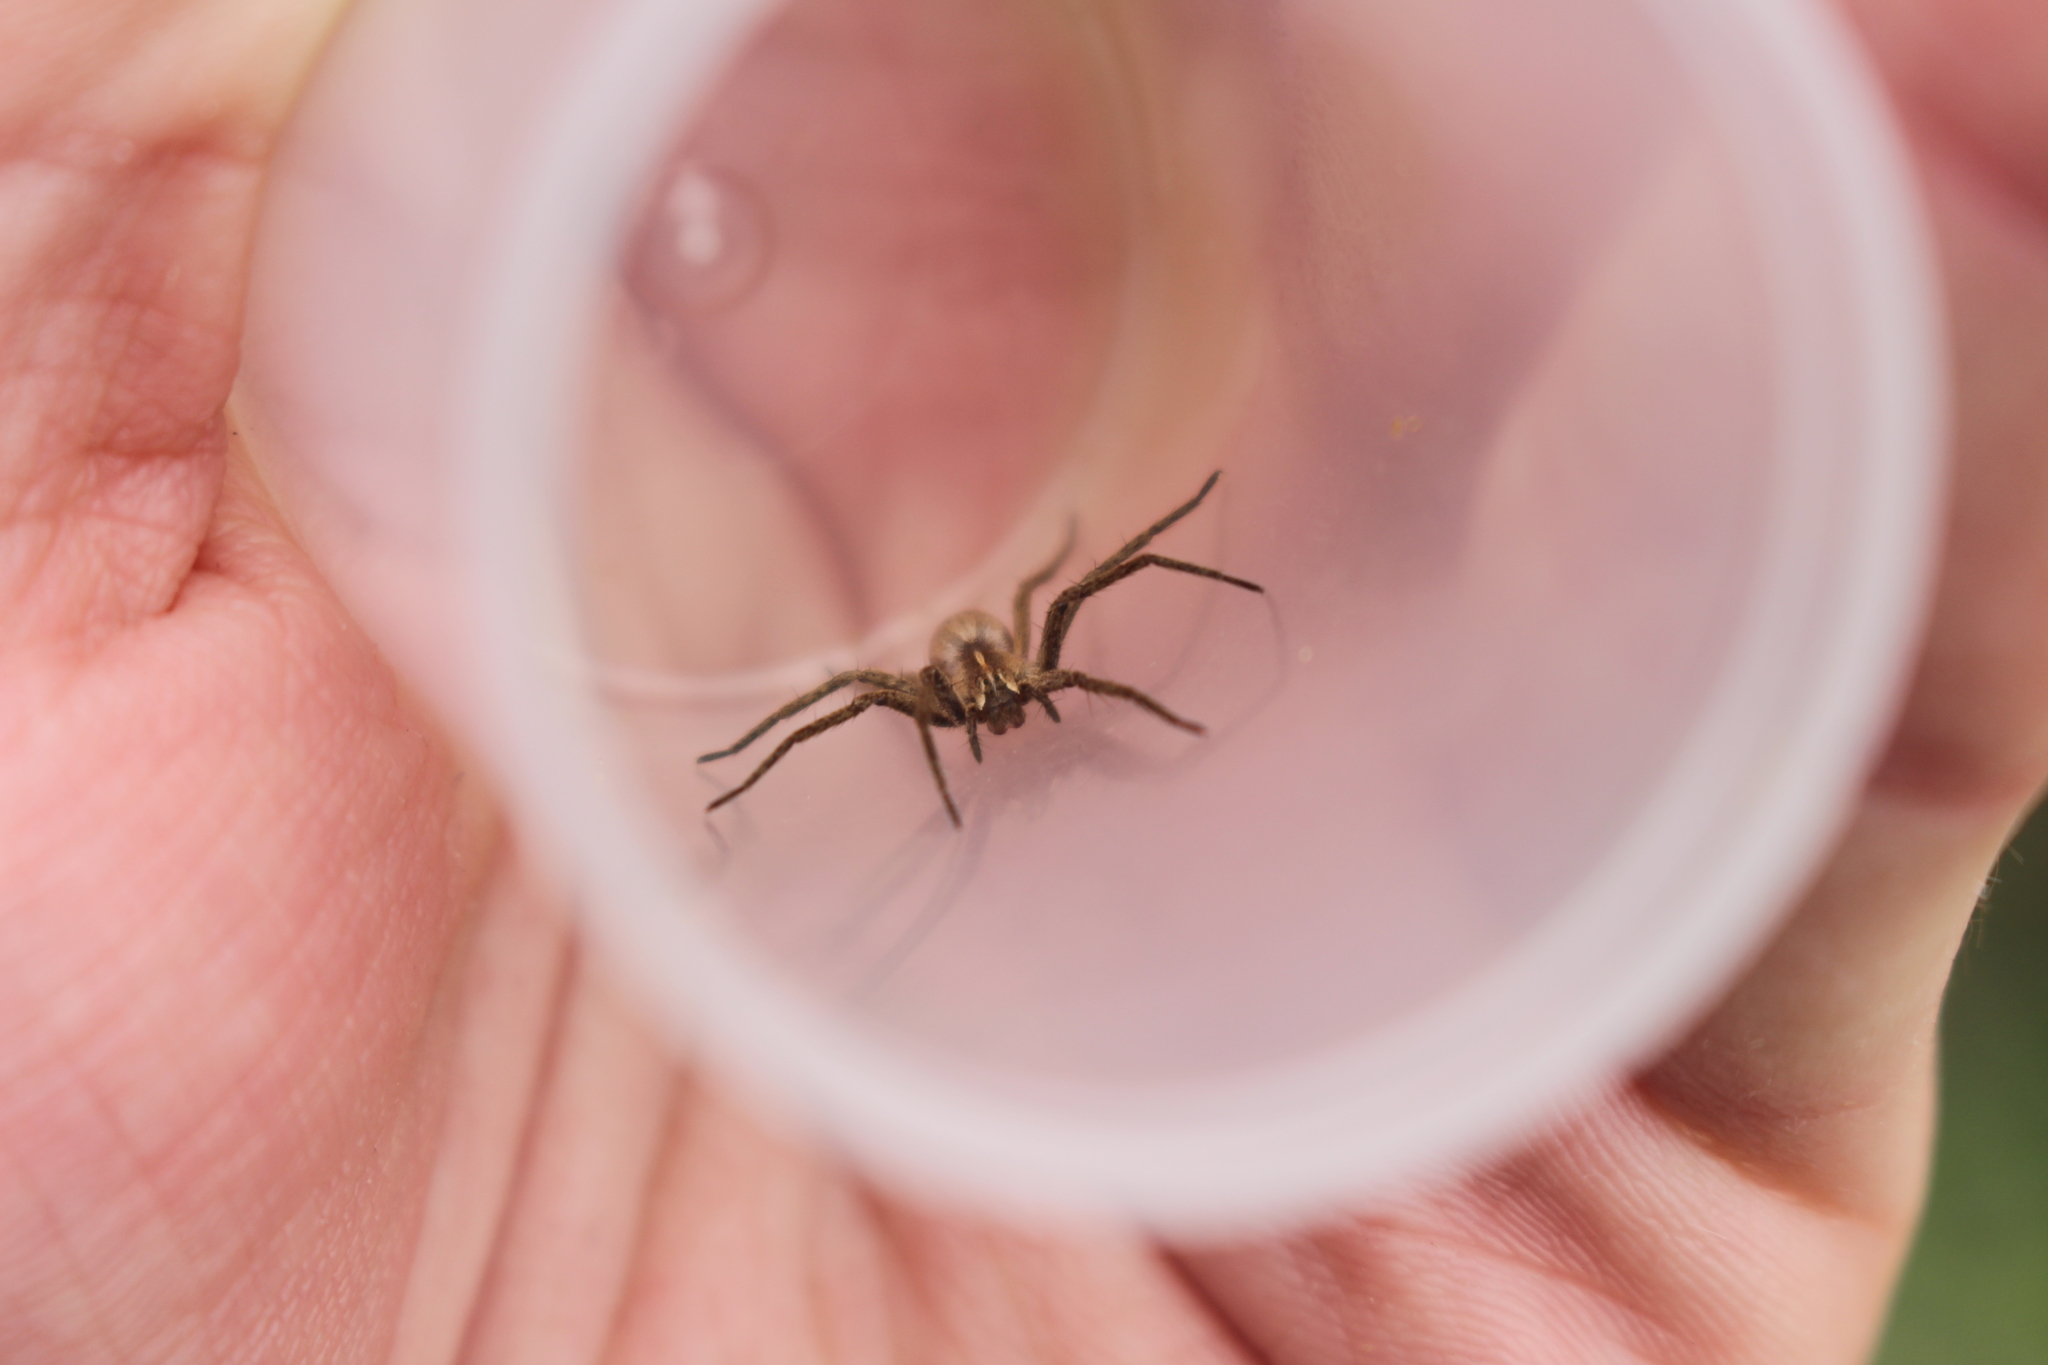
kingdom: Animalia
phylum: Arthropoda
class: Arachnida
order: Araneae
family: Pisauridae
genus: Pisaura
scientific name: Pisaura
